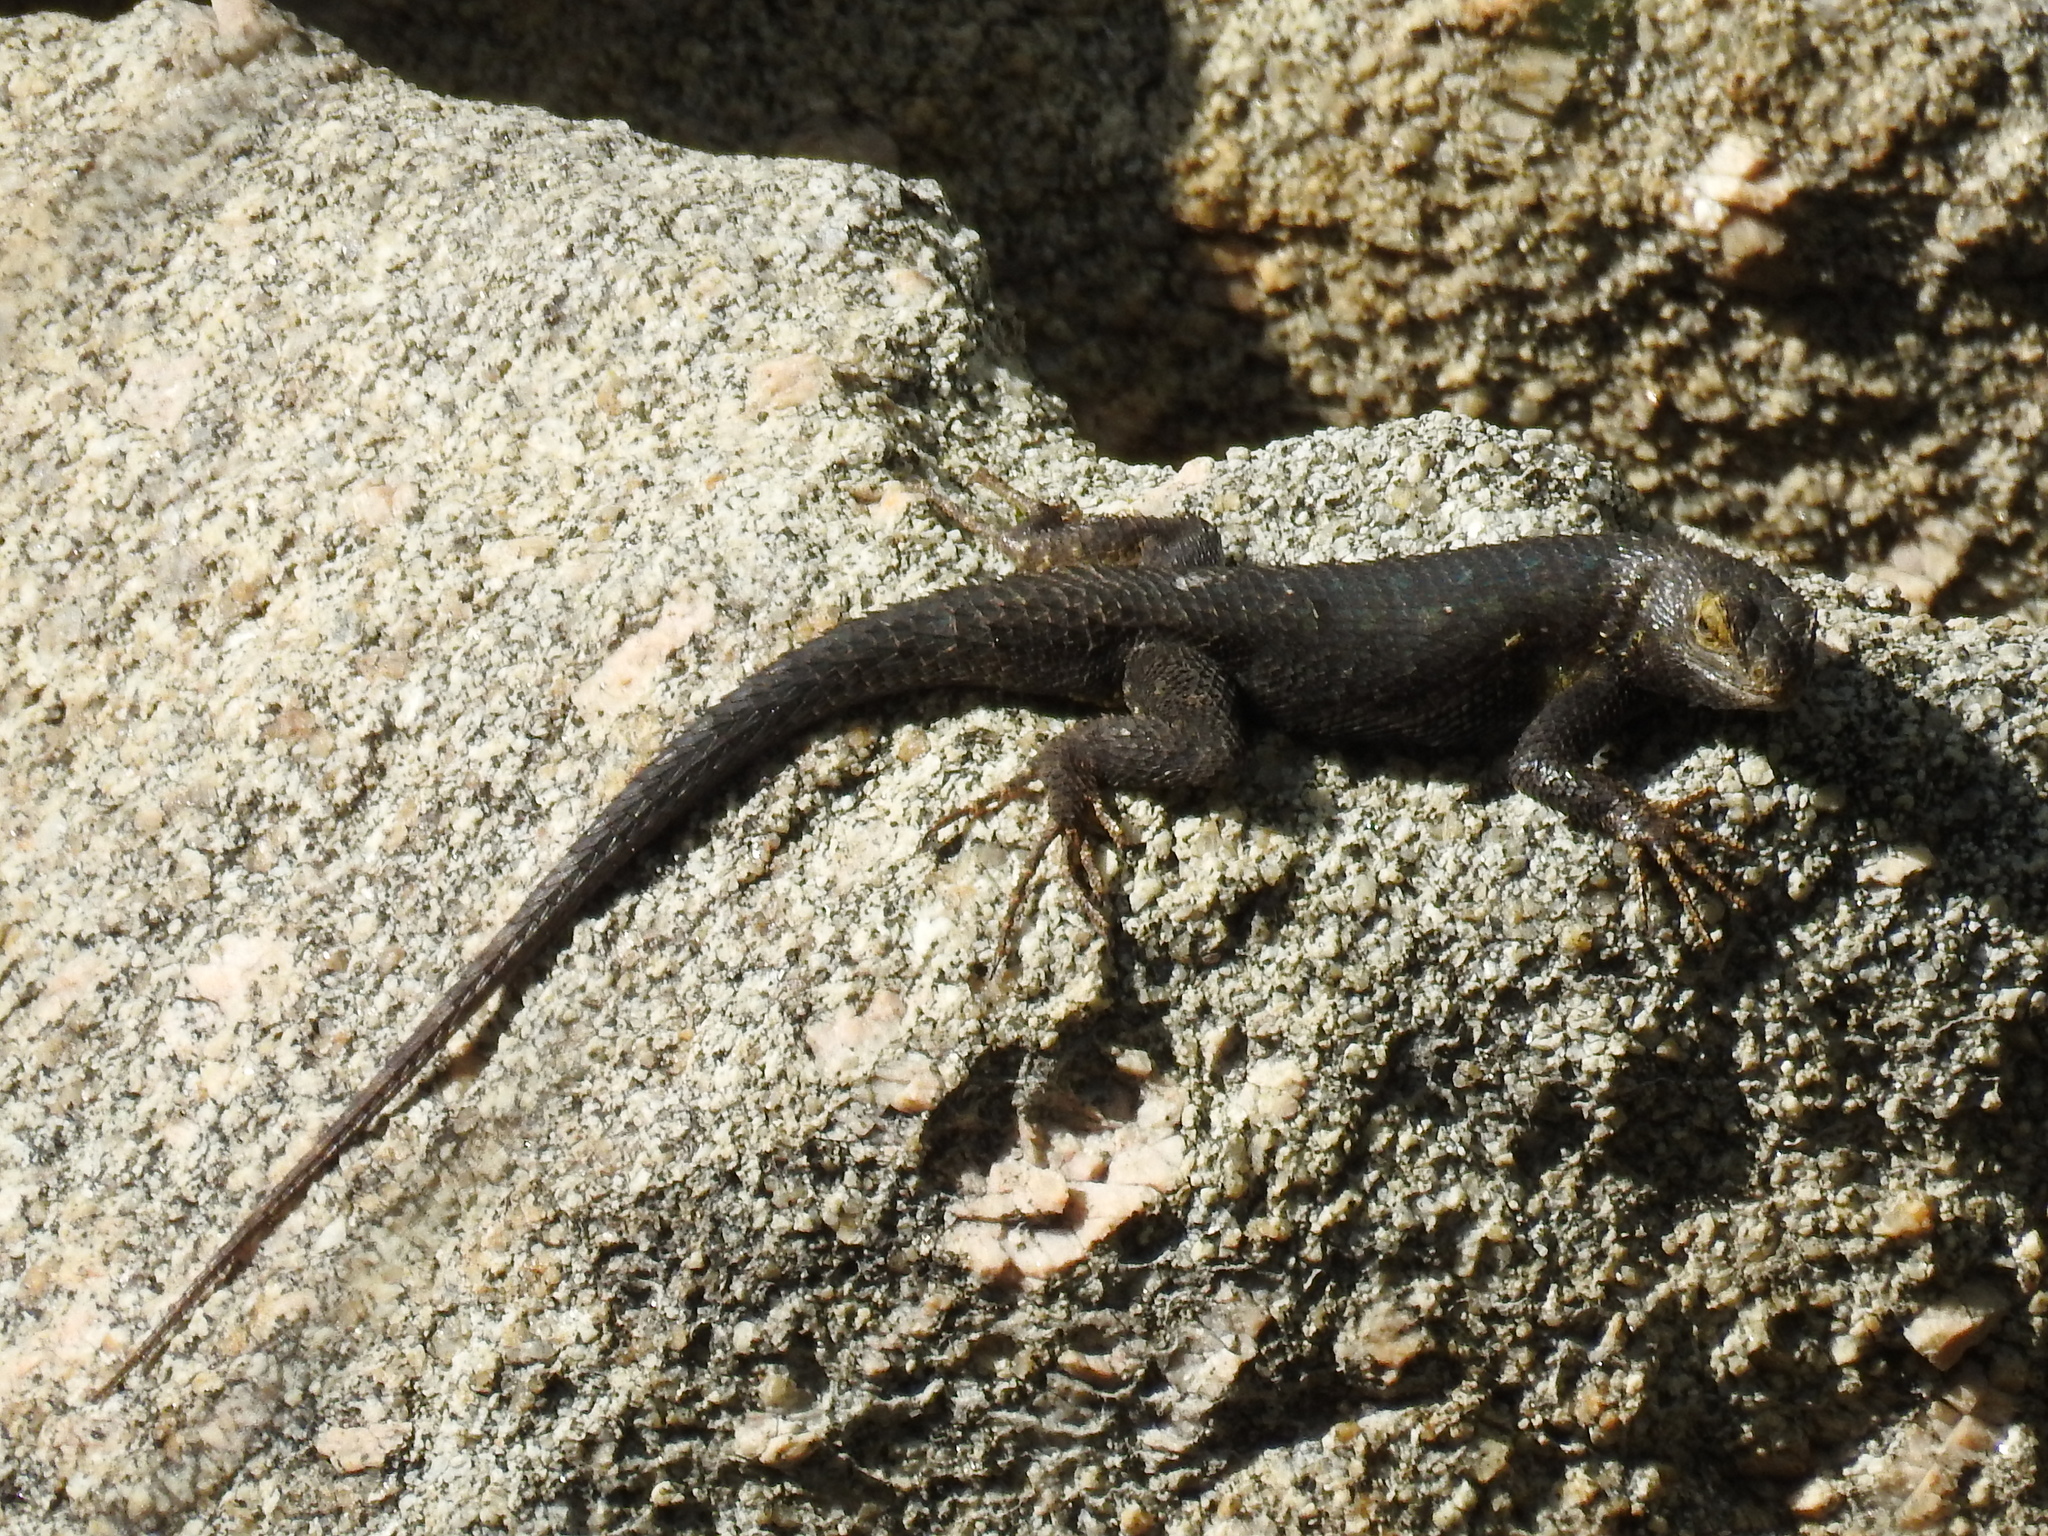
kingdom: Animalia
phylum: Chordata
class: Squamata
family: Phrynosomatidae
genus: Sceloporus
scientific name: Sceloporus occidentalis
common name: Western fence lizard
